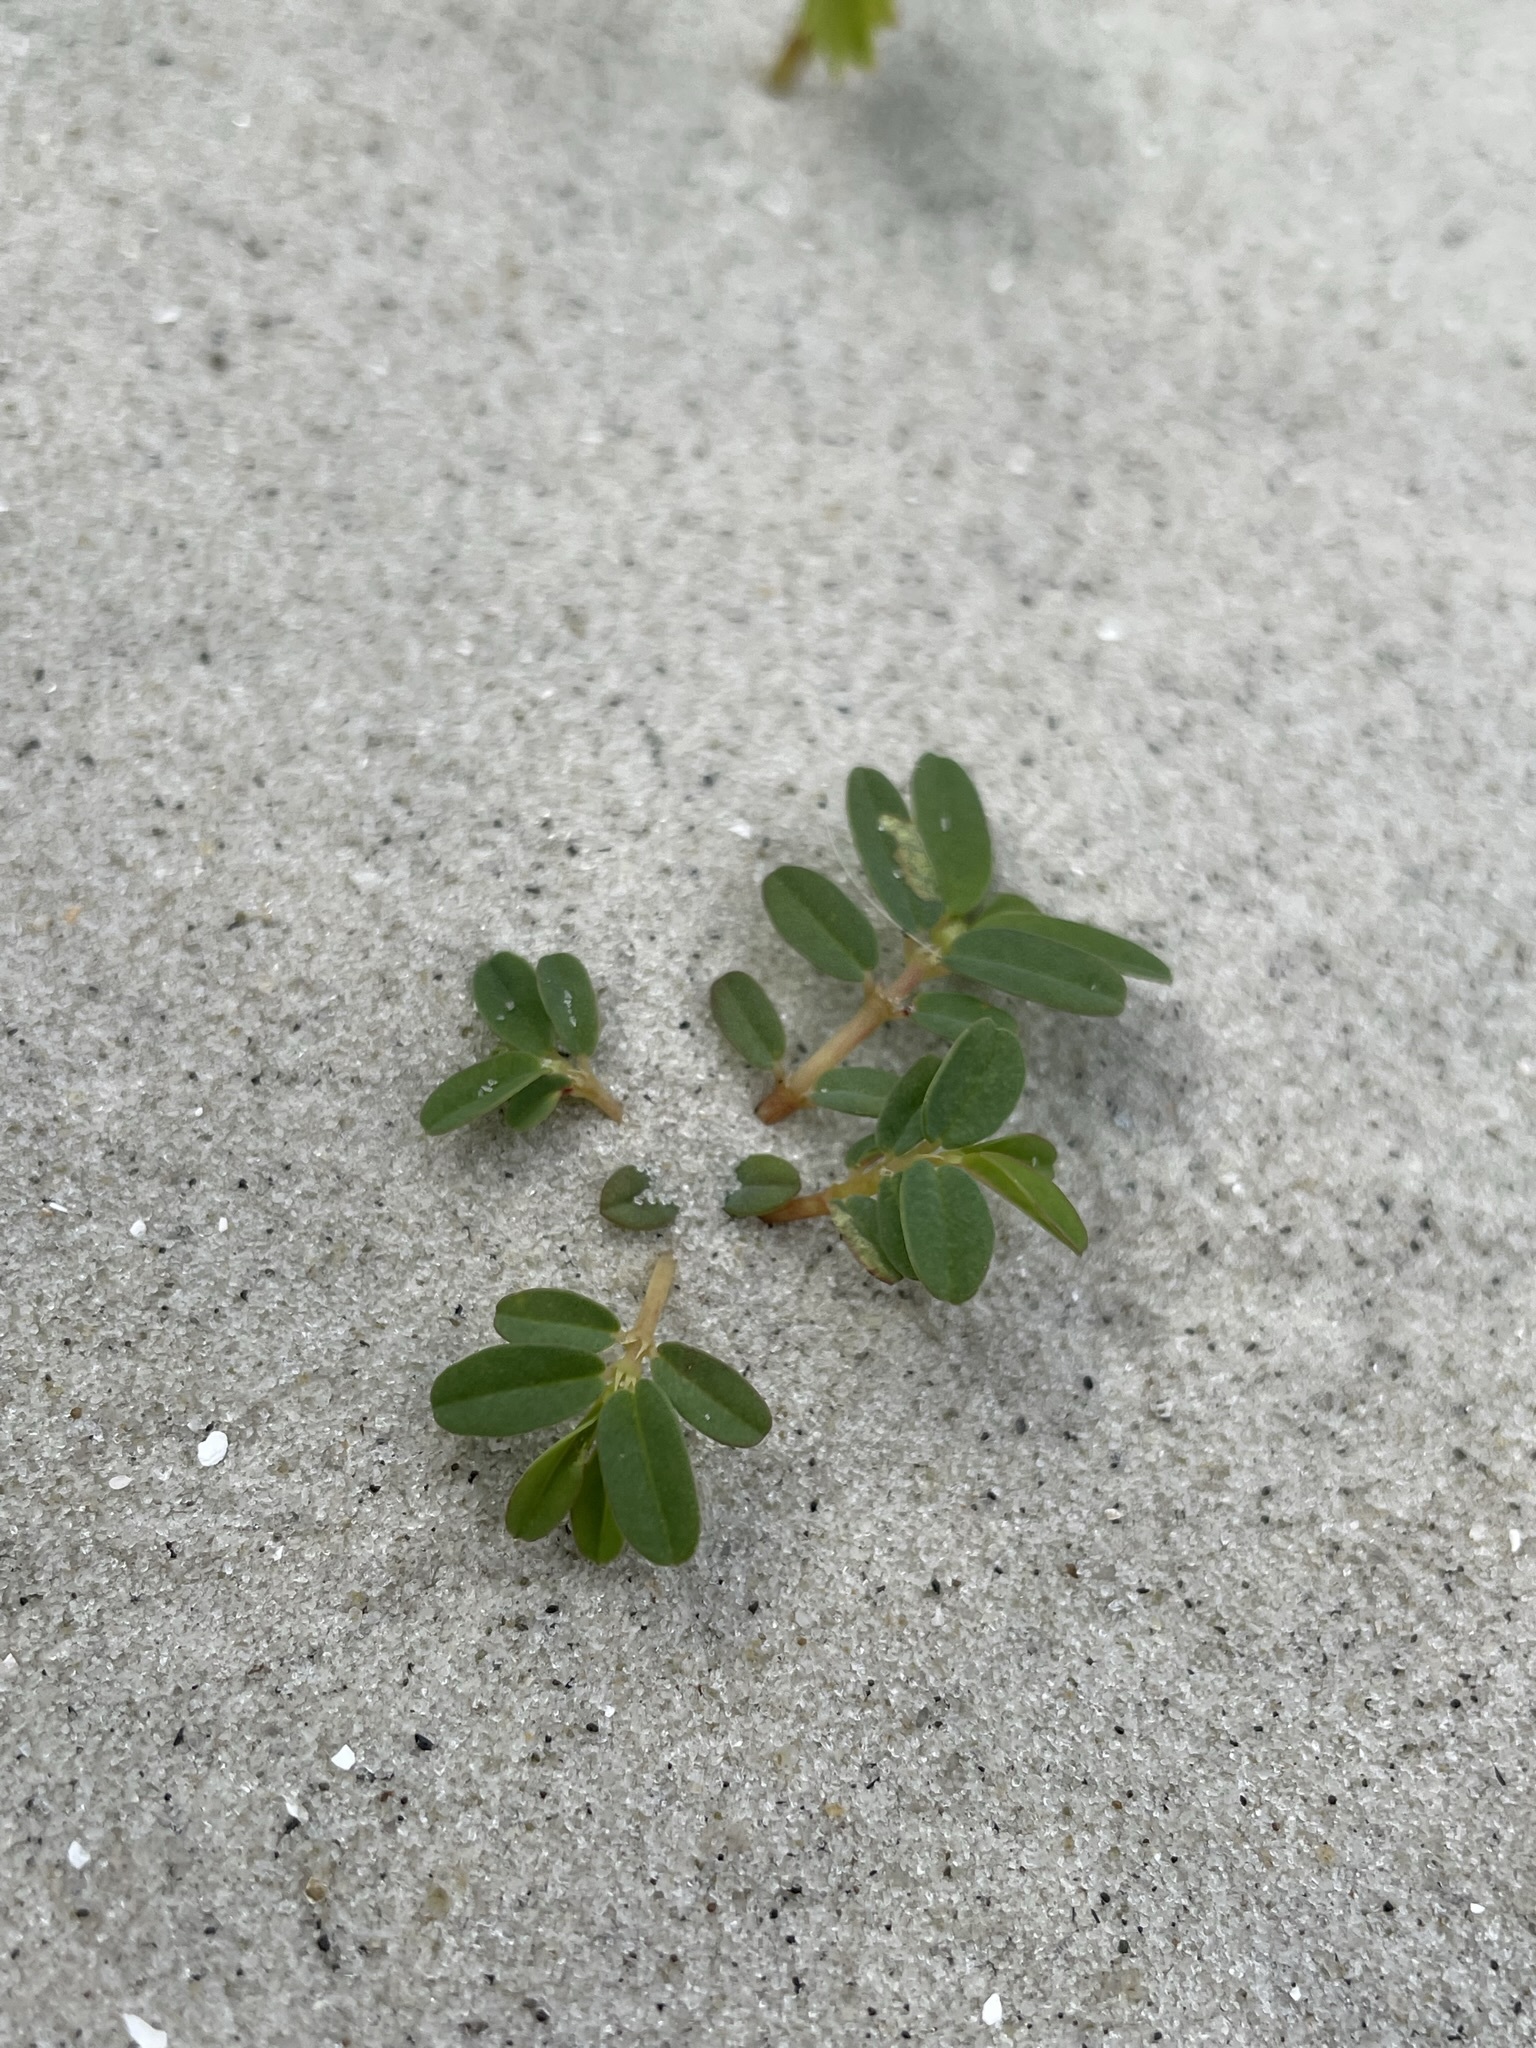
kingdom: Plantae
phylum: Tracheophyta
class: Magnoliopsida
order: Malpighiales
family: Euphorbiaceae
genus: Euphorbia
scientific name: Euphorbia bombensis
